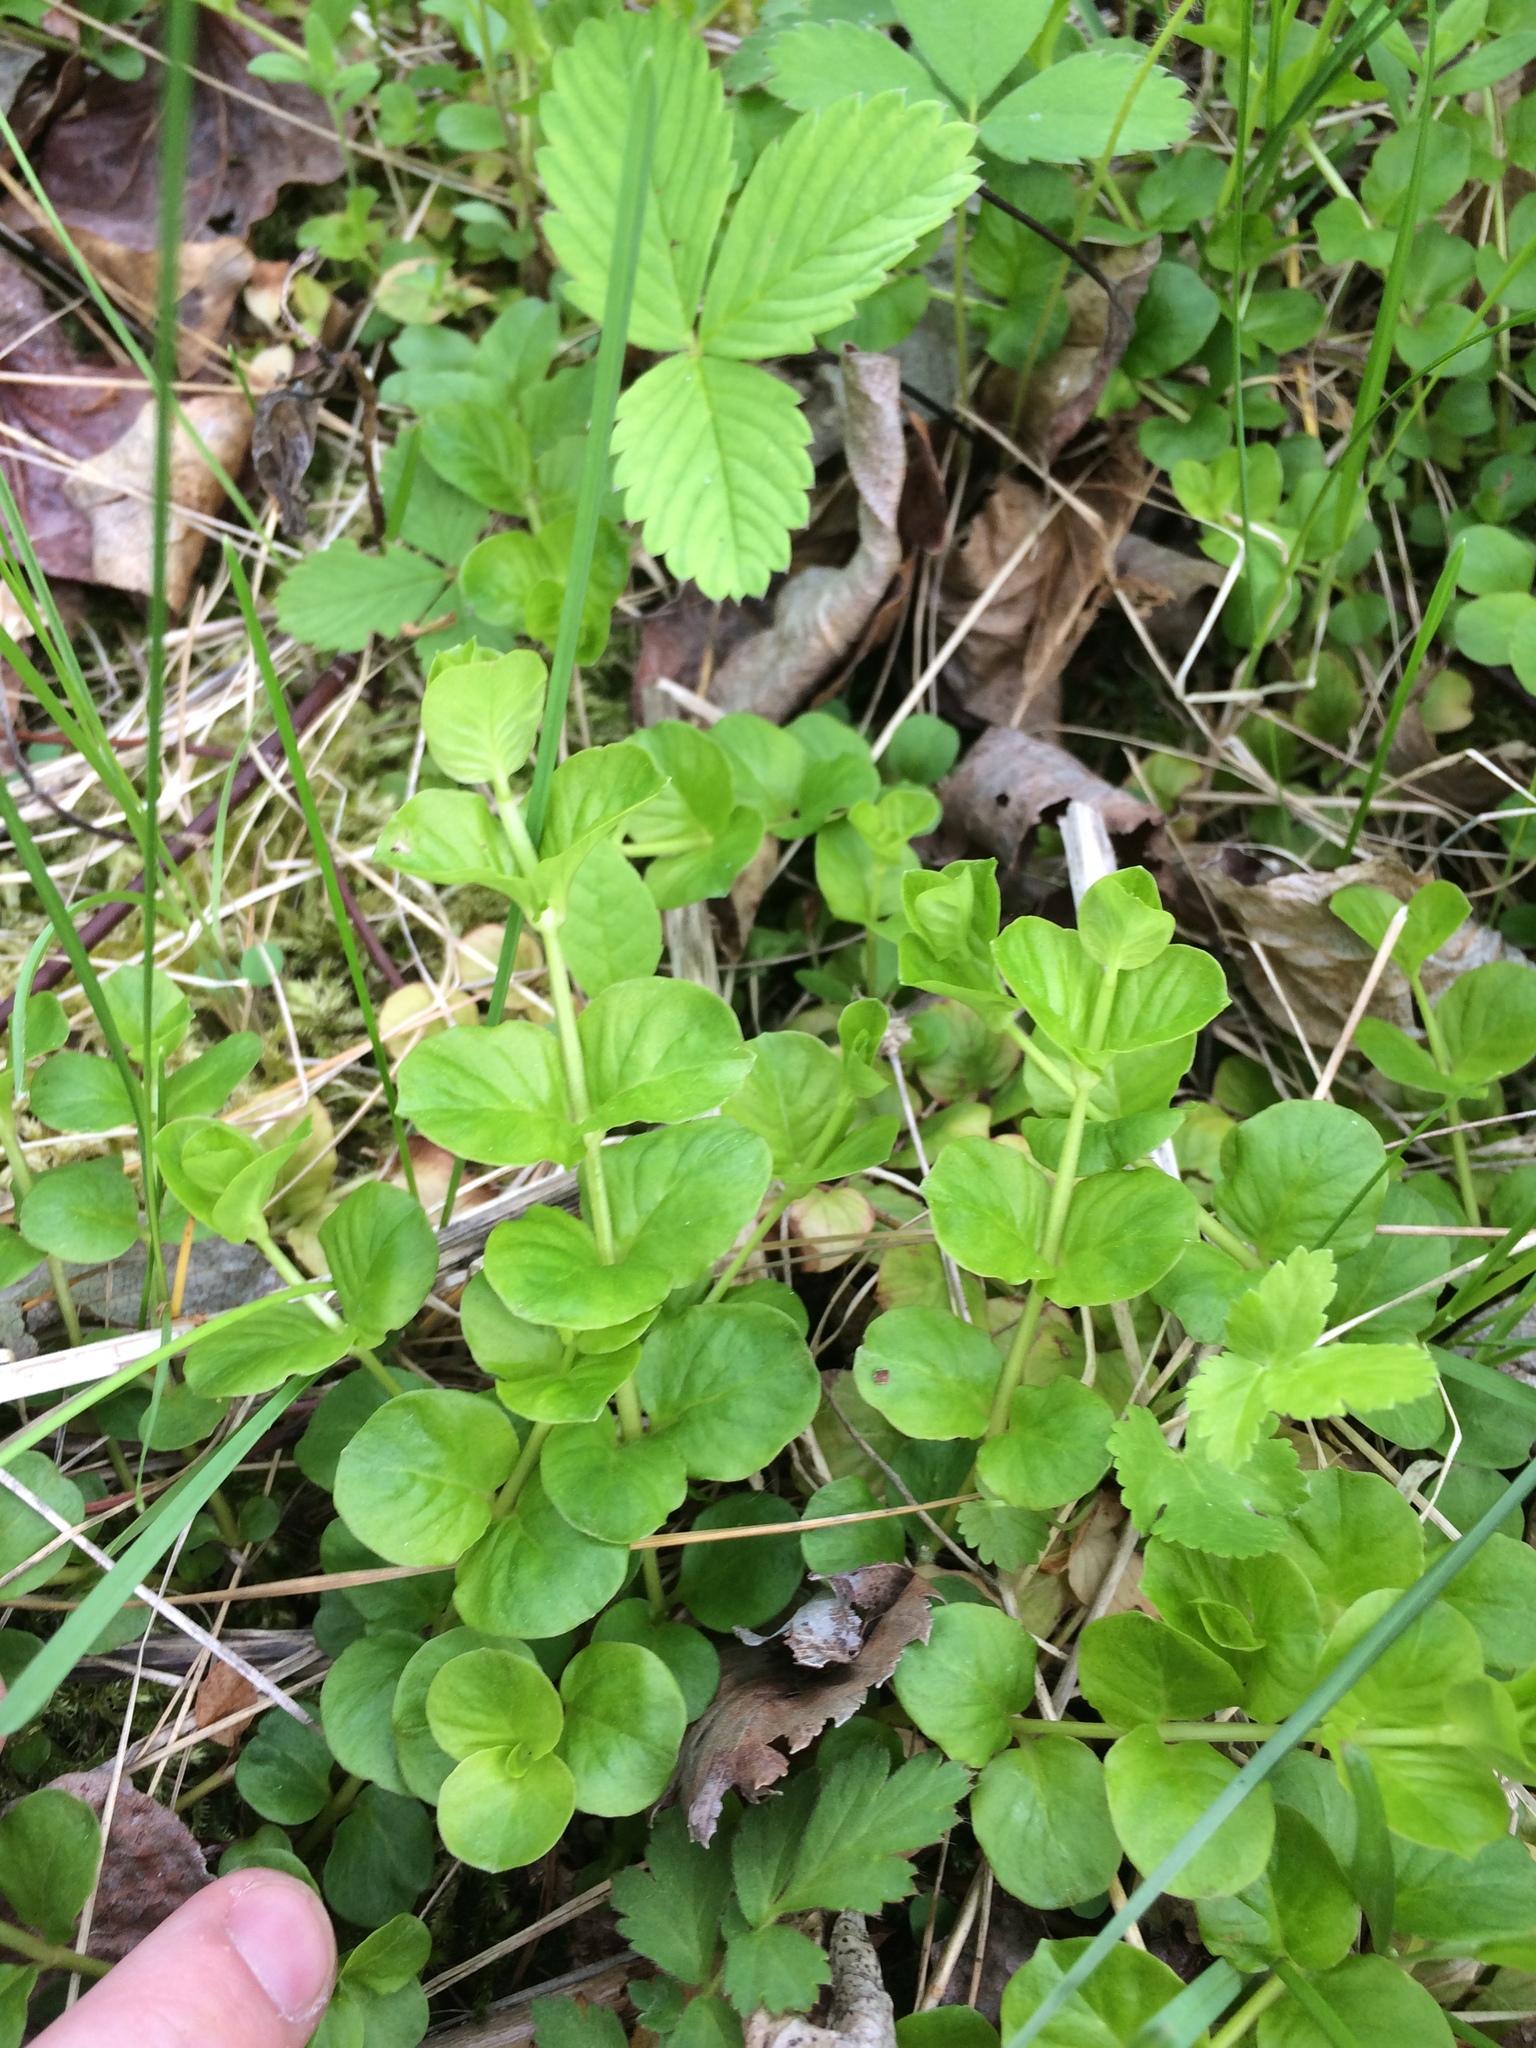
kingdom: Plantae
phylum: Tracheophyta
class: Magnoliopsida
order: Ericales
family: Primulaceae
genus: Lysimachia
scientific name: Lysimachia nummularia
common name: Moneywort
